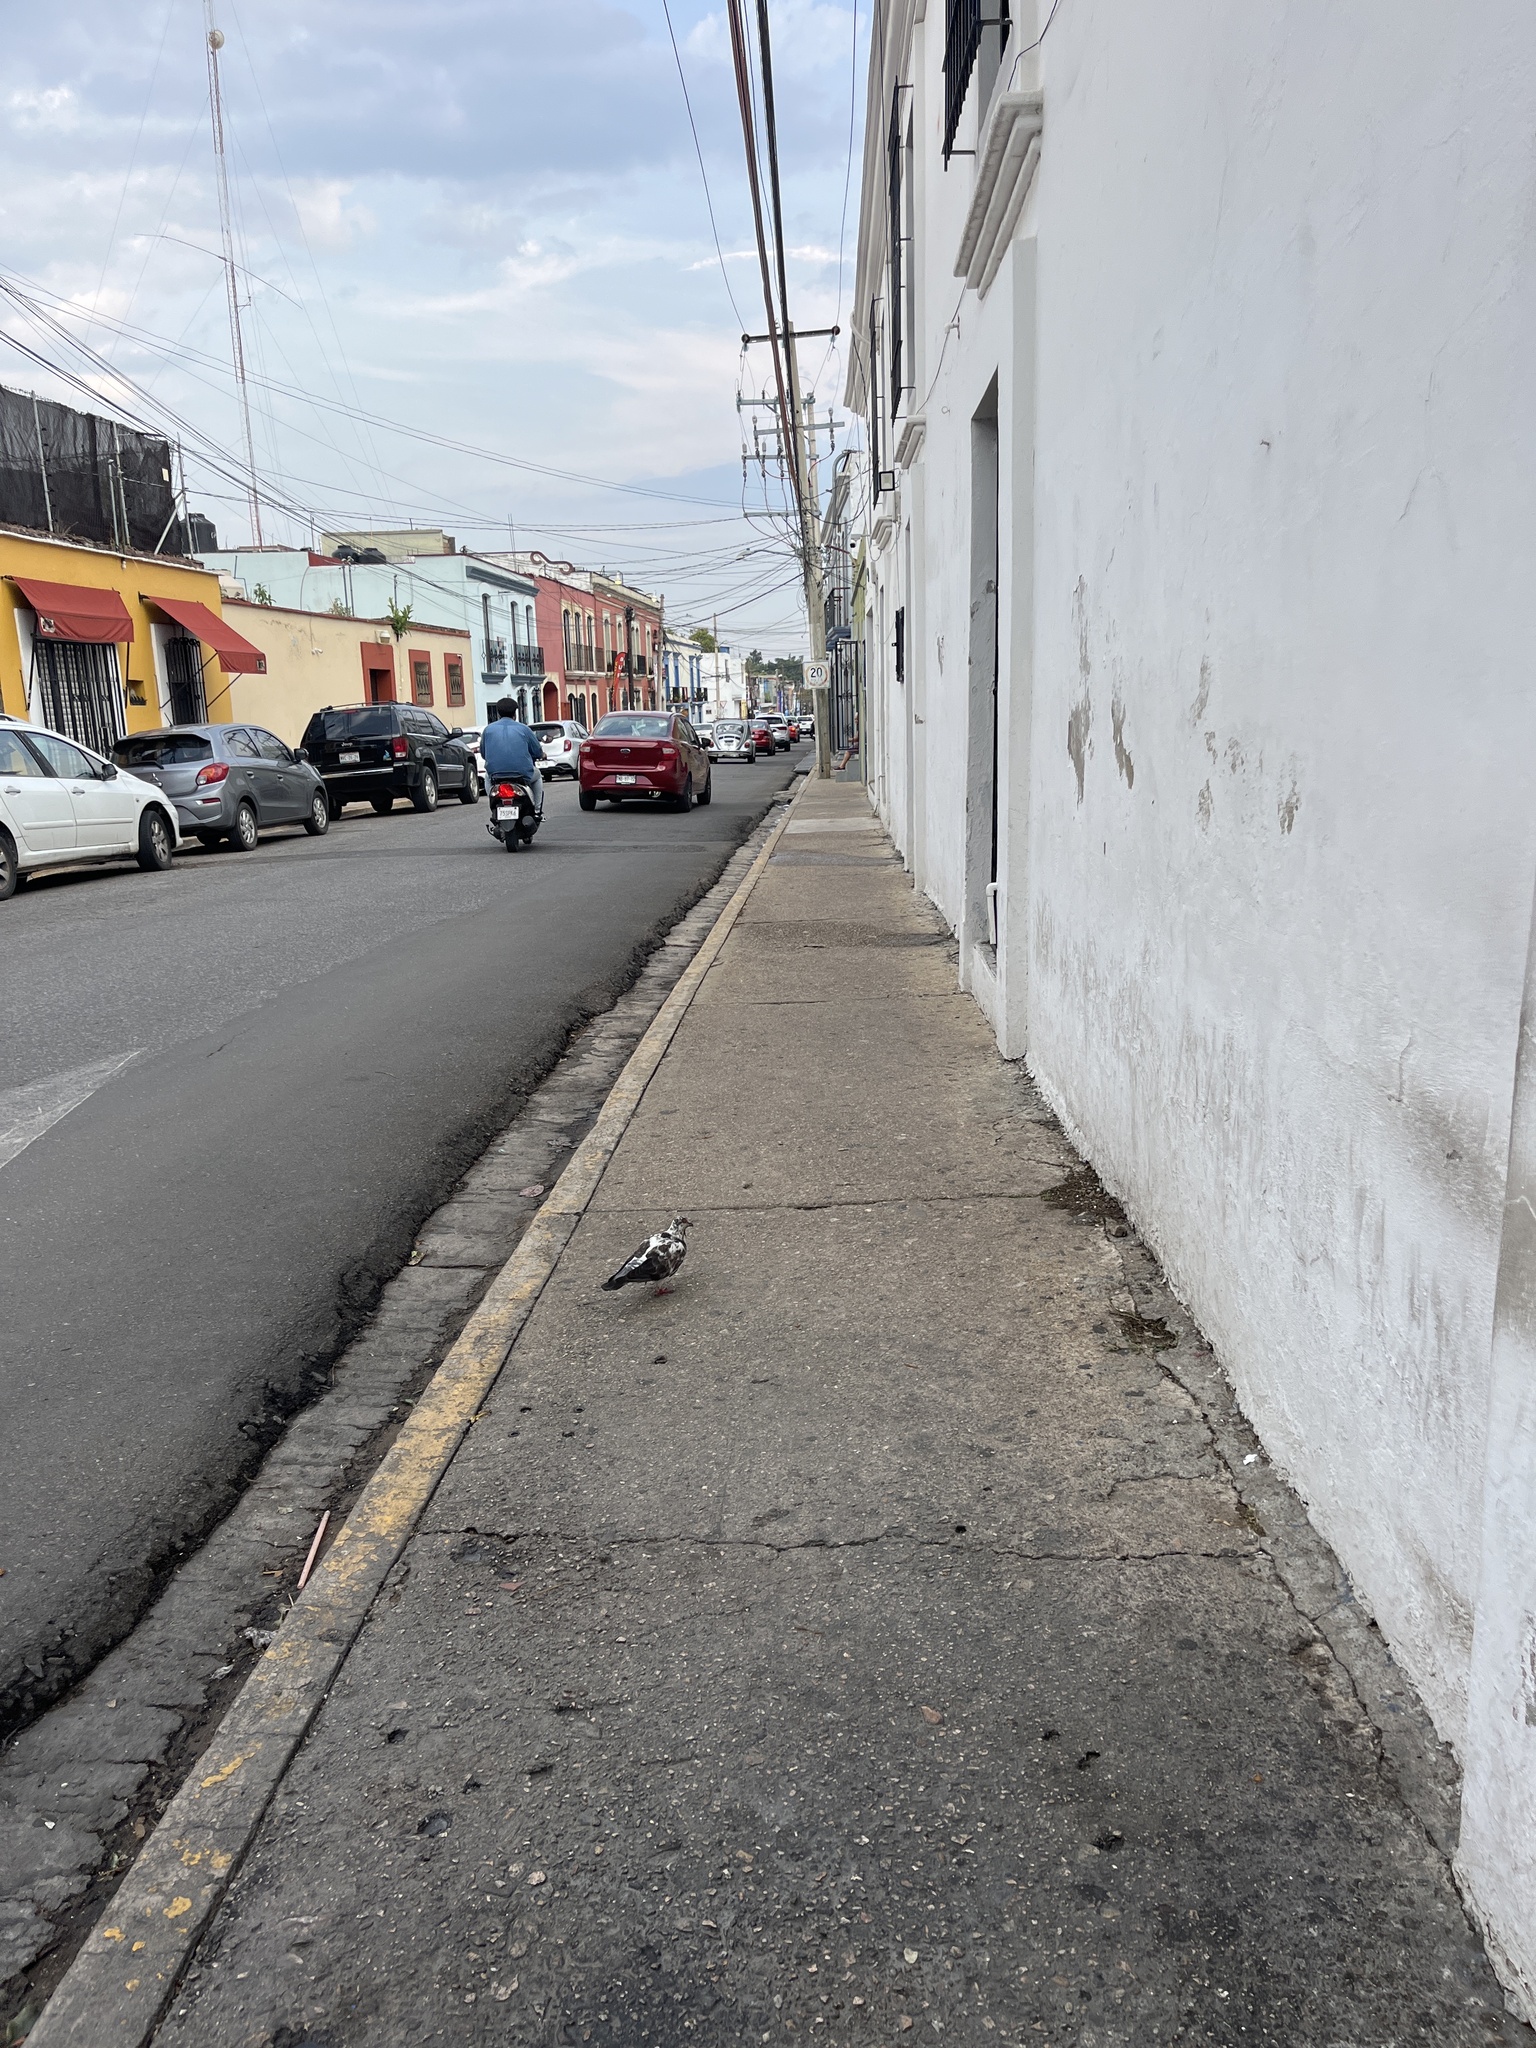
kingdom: Animalia
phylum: Chordata
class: Aves
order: Columbiformes
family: Columbidae
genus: Columba
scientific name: Columba livia
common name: Rock pigeon
